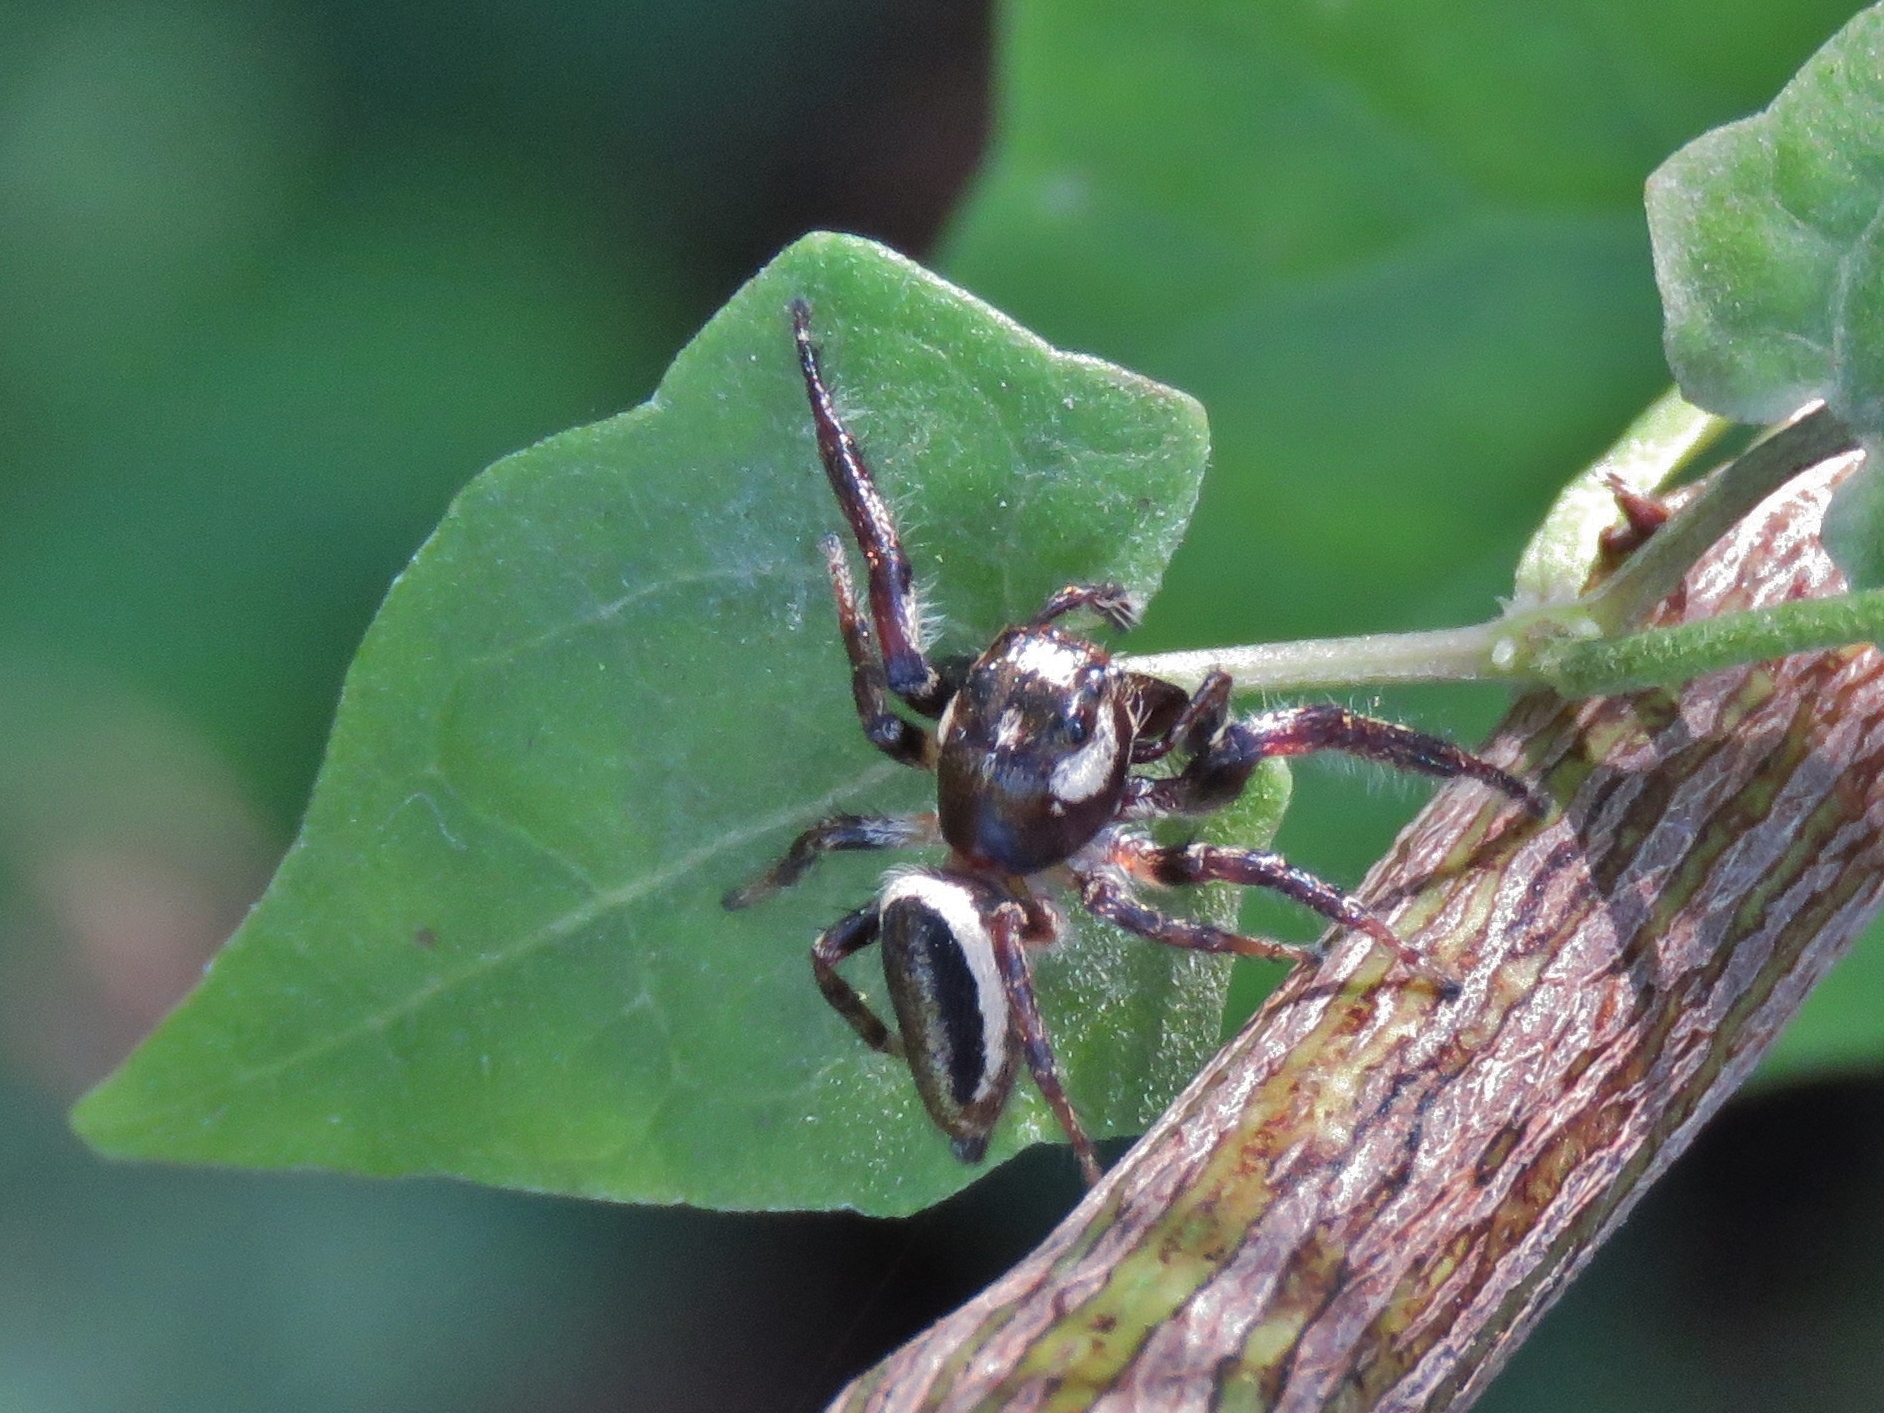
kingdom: Animalia
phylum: Arthropoda
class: Arachnida
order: Araneae
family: Salticidae
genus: Eris
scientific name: Eris militaris
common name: Bronze jumper
